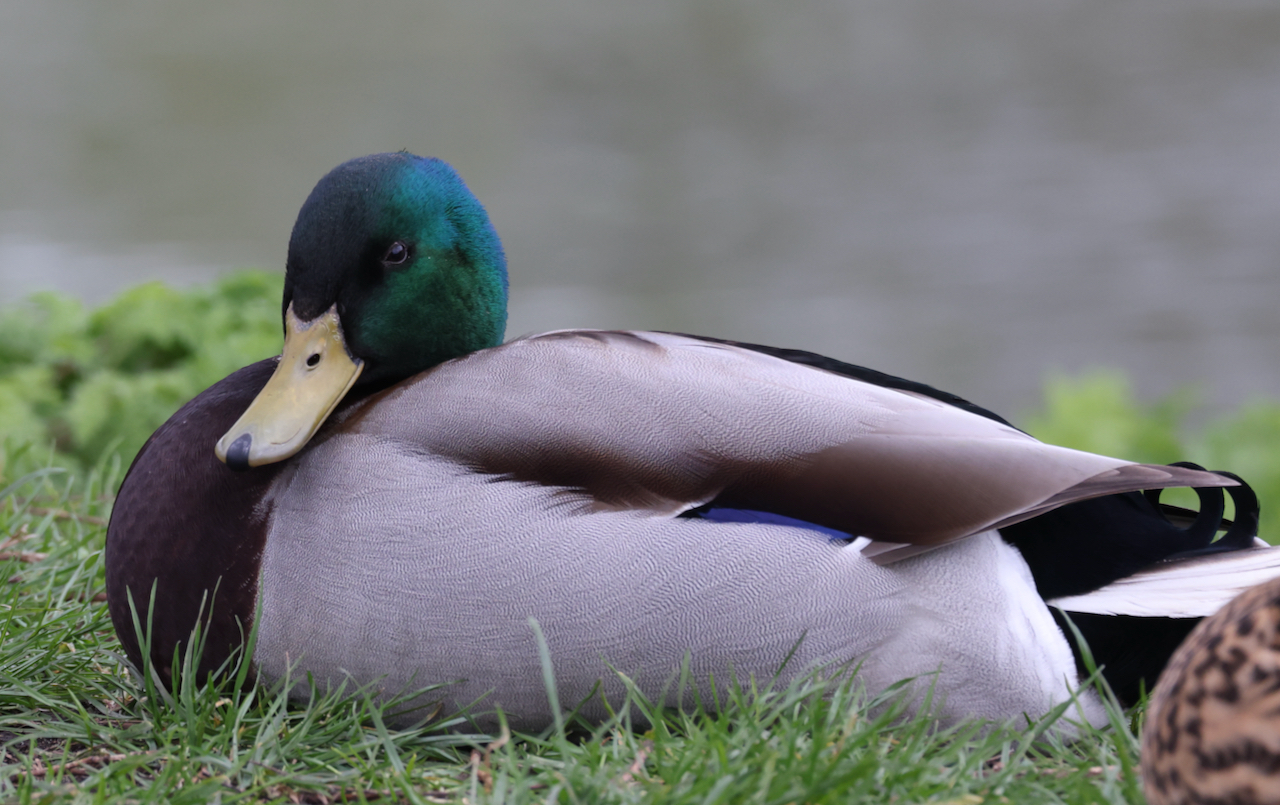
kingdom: Animalia
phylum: Chordata
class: Aves
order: Anseriformes
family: Anatidae
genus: Anas
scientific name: Anas platyrhynchos
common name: Mallard
